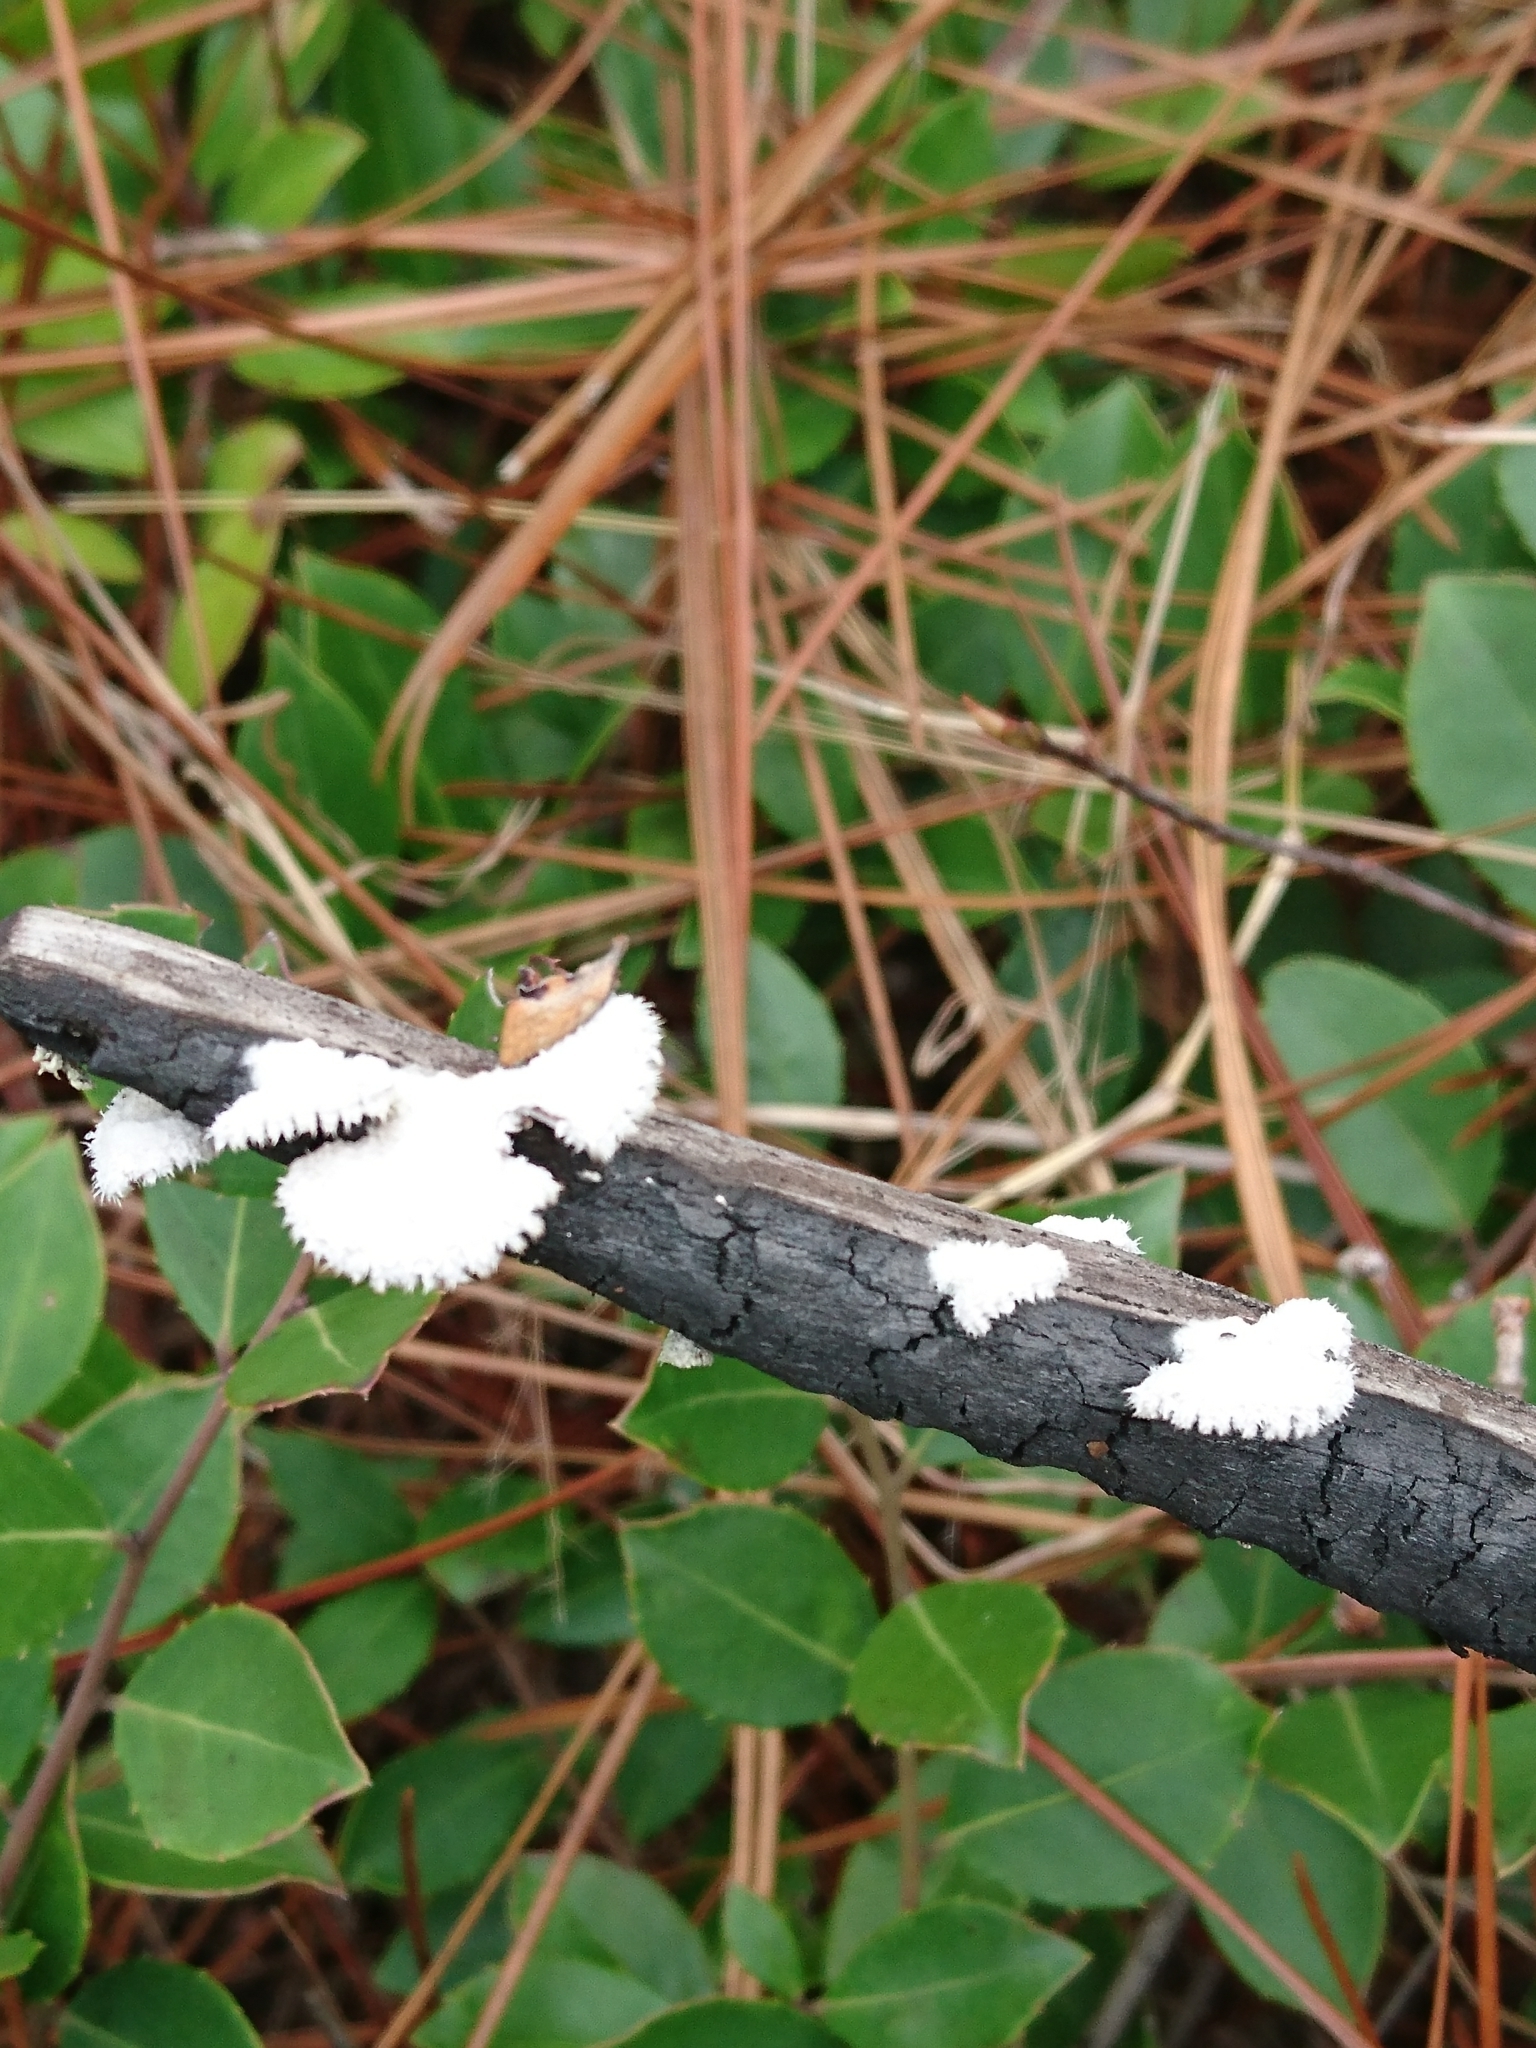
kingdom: Fungi
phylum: Basidiomycota
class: Agaricomycetes
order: Agaricales
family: Schizophyllaceae
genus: Schizophyllum
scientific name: Schizophyllum commune
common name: Common porecrust
